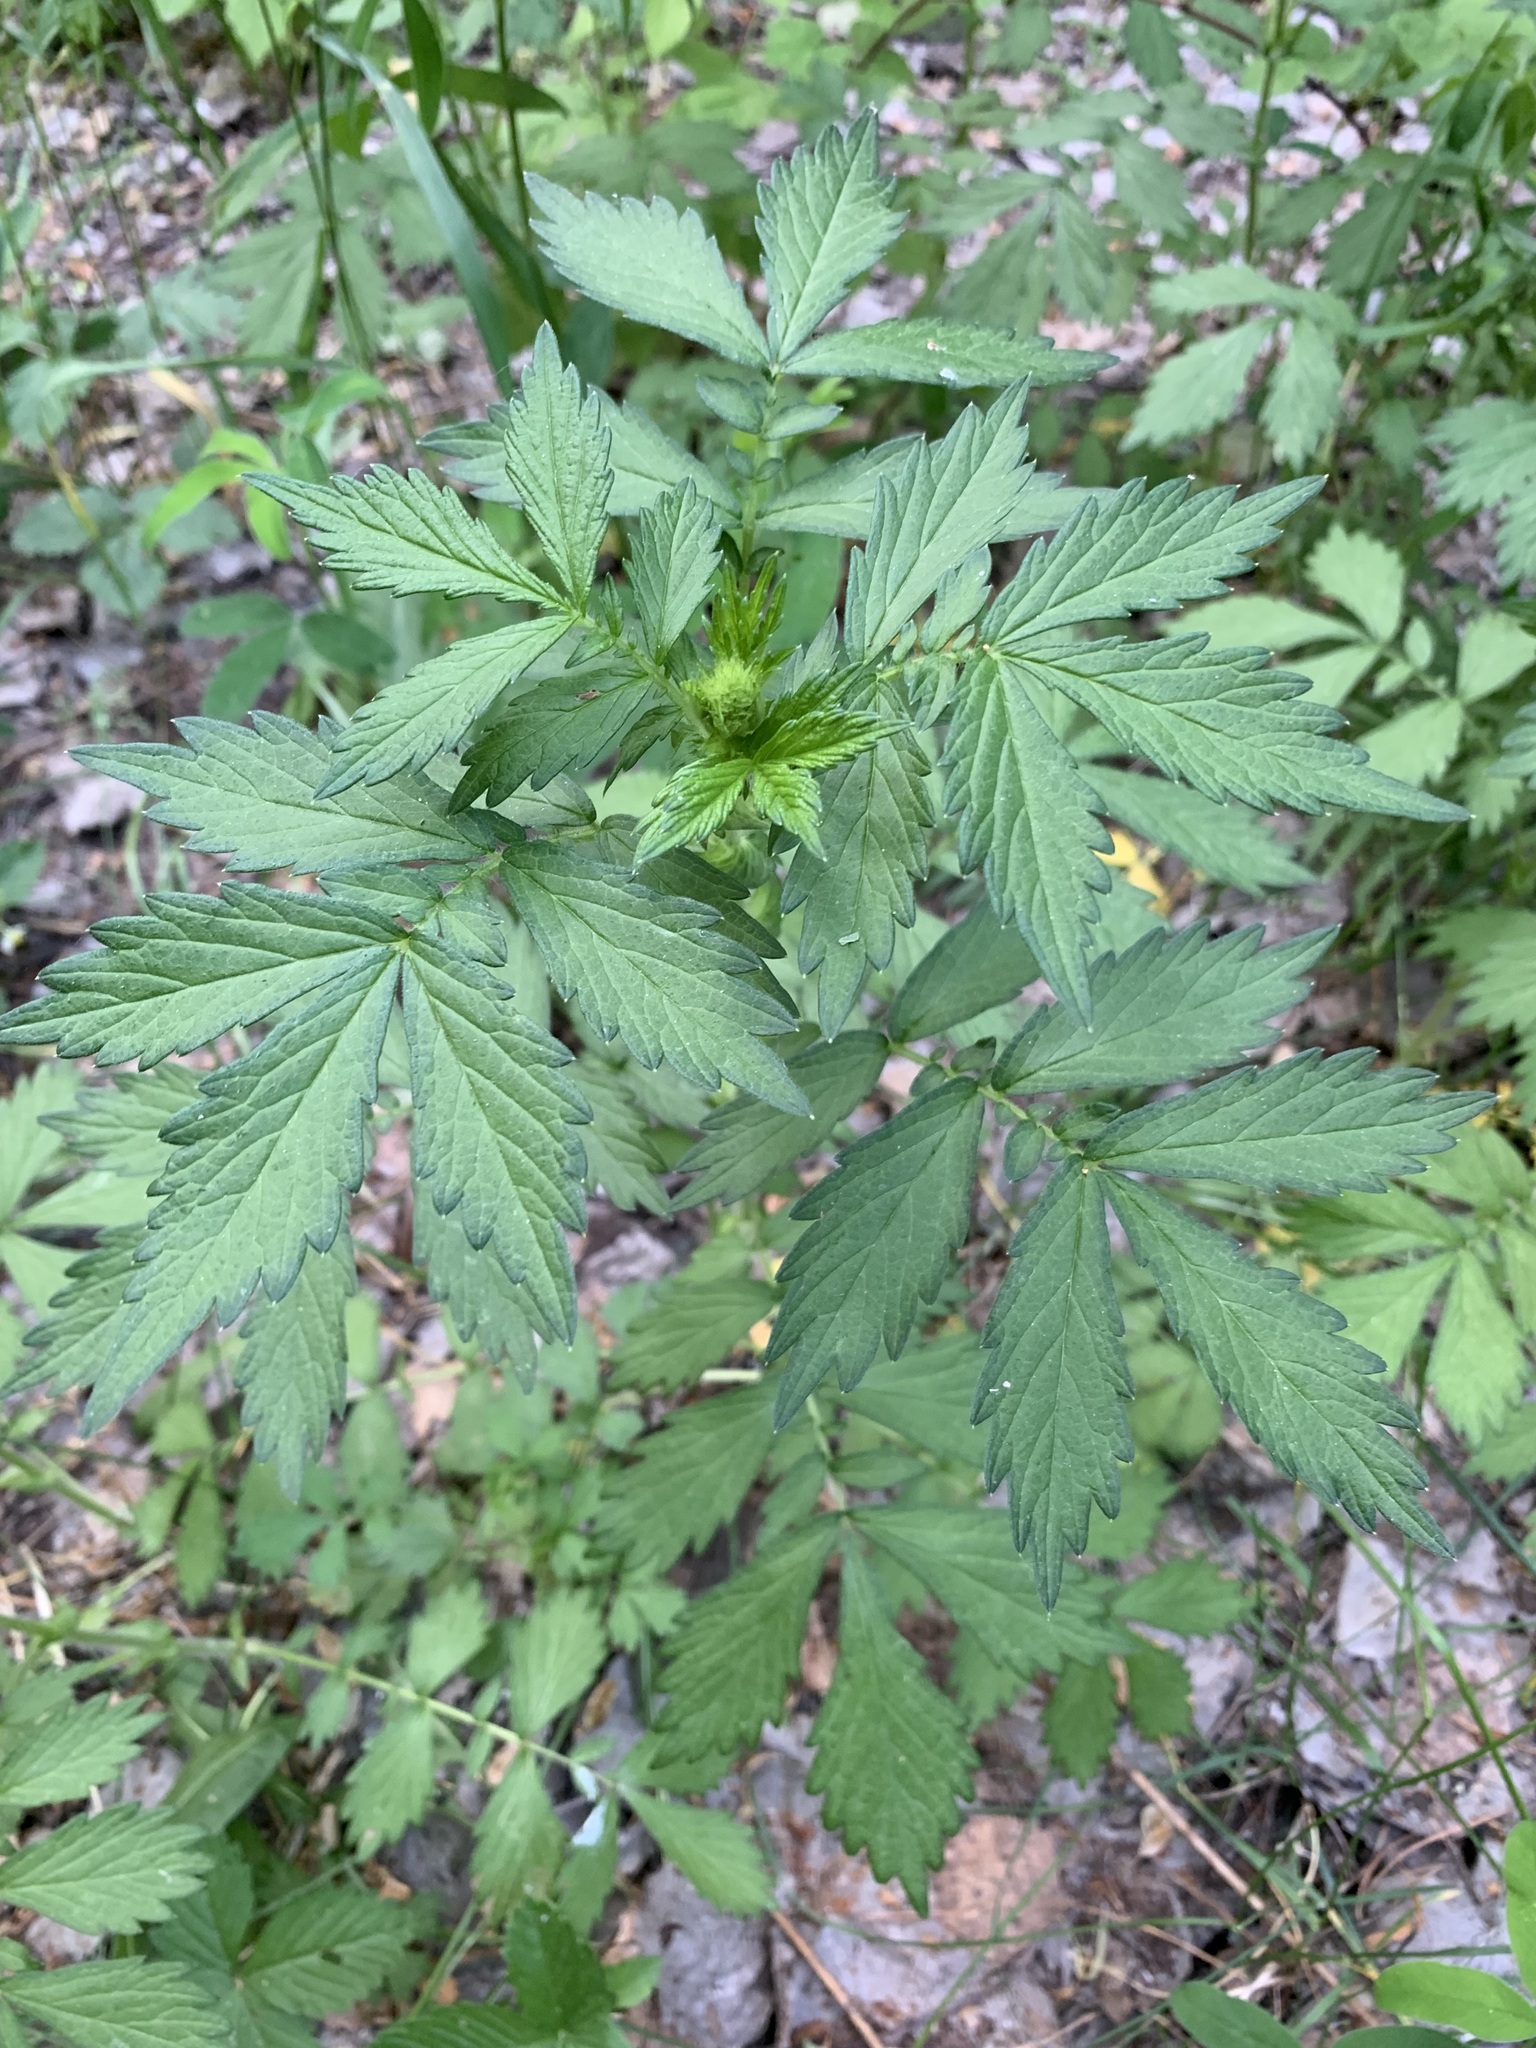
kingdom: Plantae
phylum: Tracheophyta
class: Magnoliopsida
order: Rosales
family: Rosaceae
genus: Agrimonia
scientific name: Agrimonia pilosa
